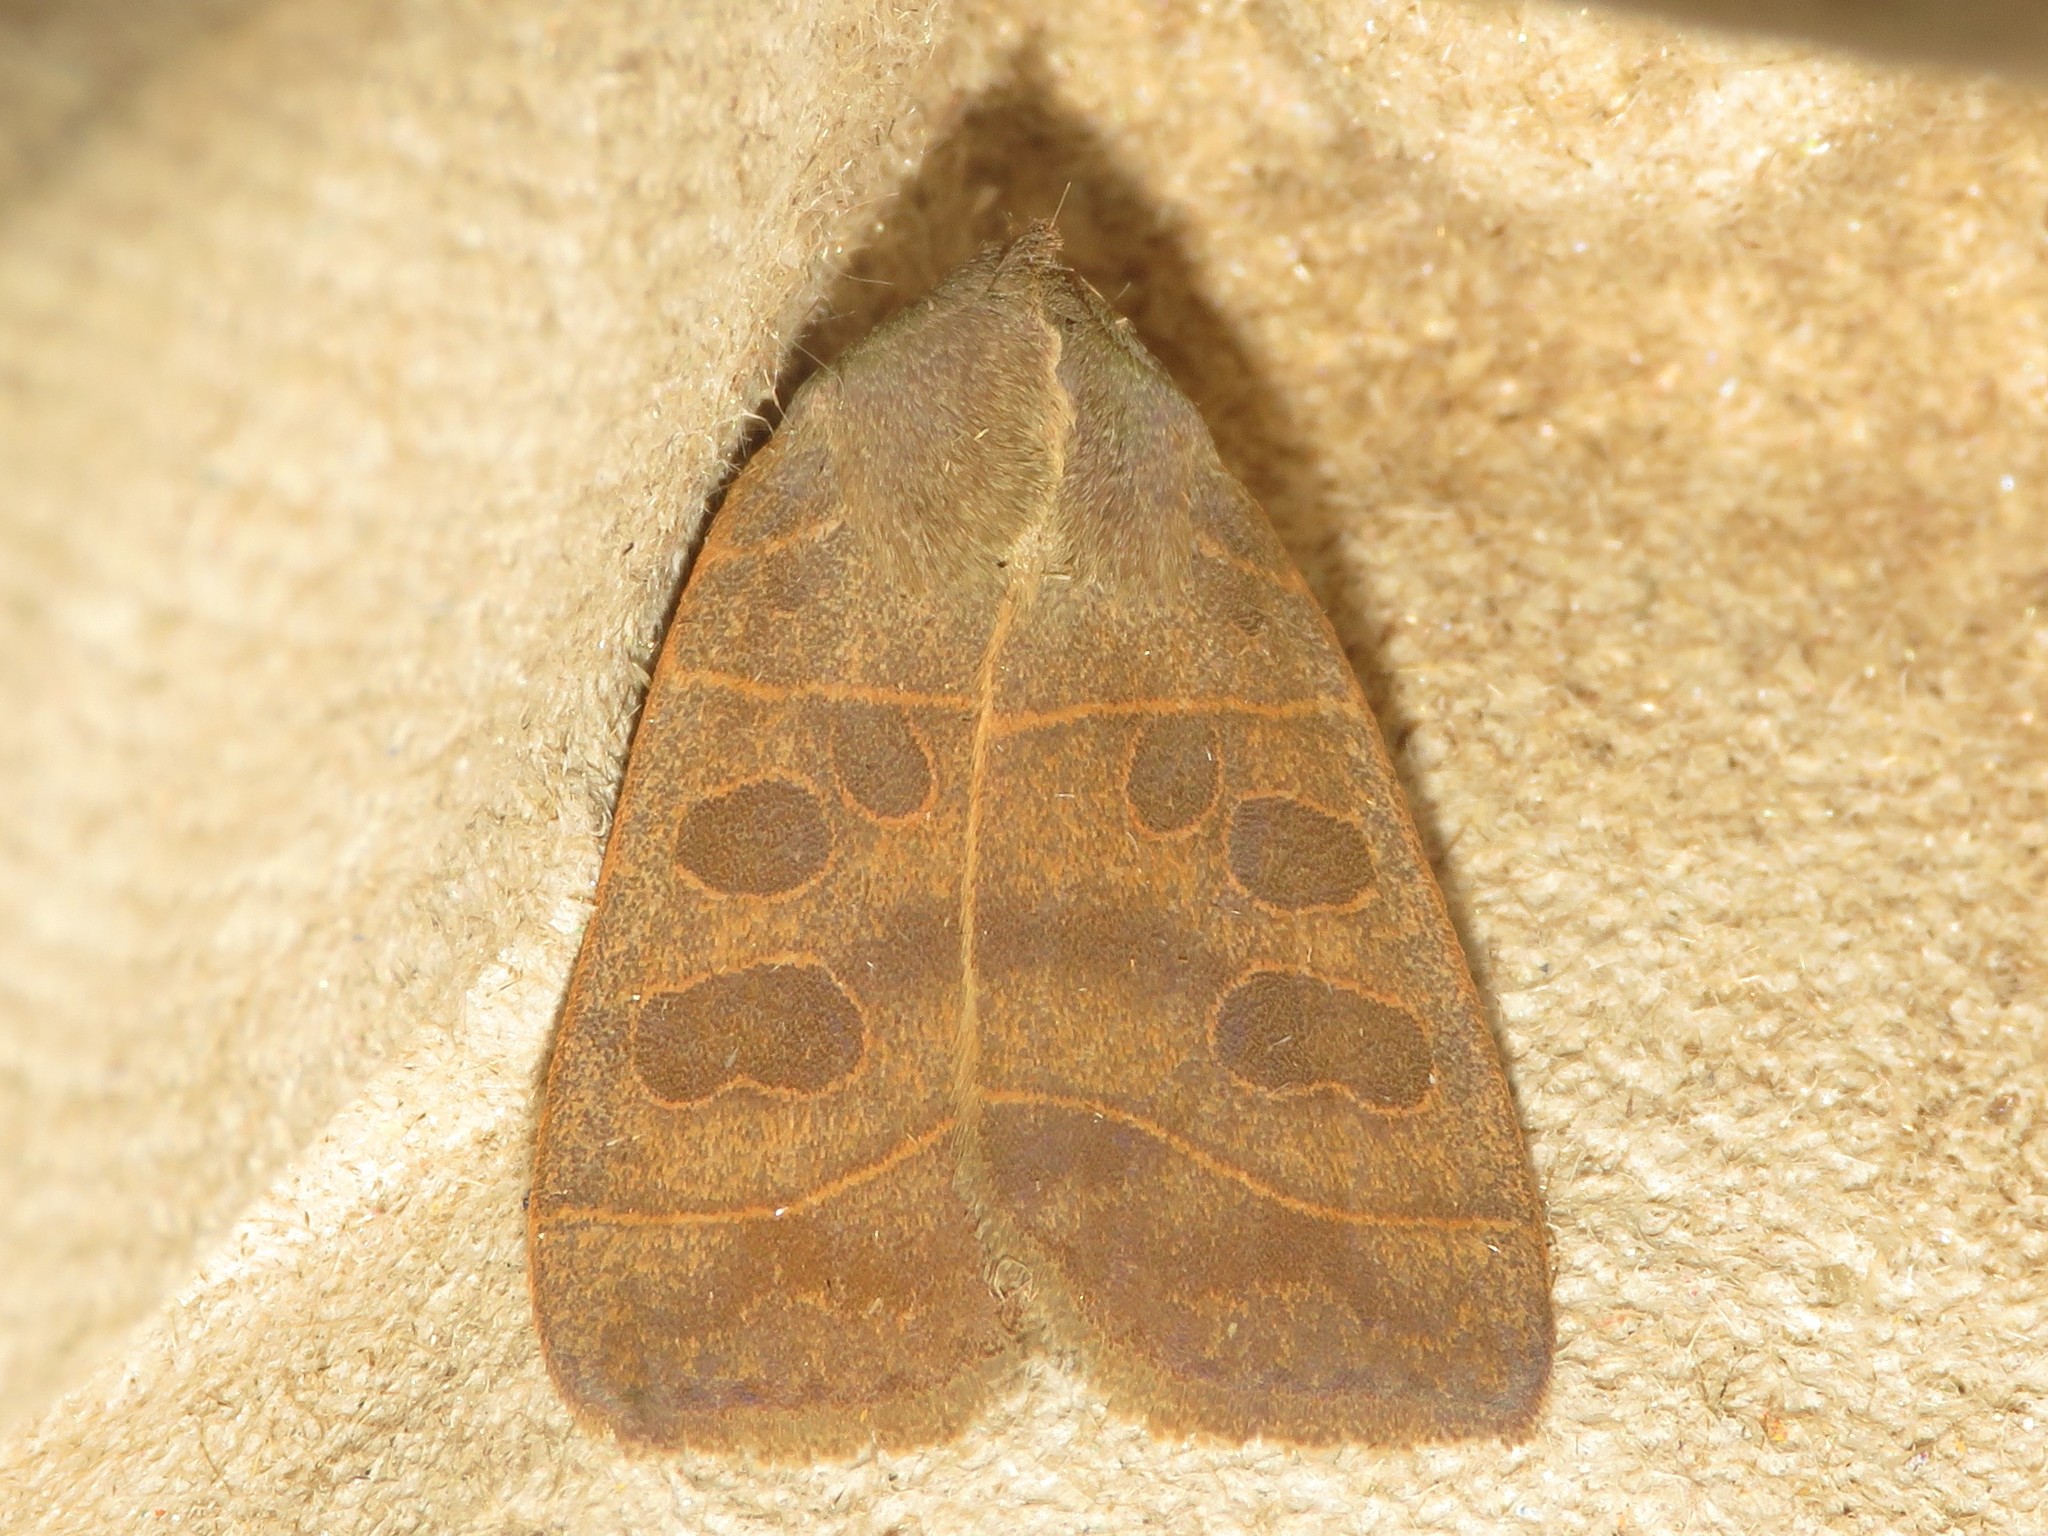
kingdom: Animalia
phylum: Arthropoda
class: Insecta
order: Lepidoptera
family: Noctuidae
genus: Ipimorpha
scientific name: Ipimorpha pleonectusa
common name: Even-lined sallow
